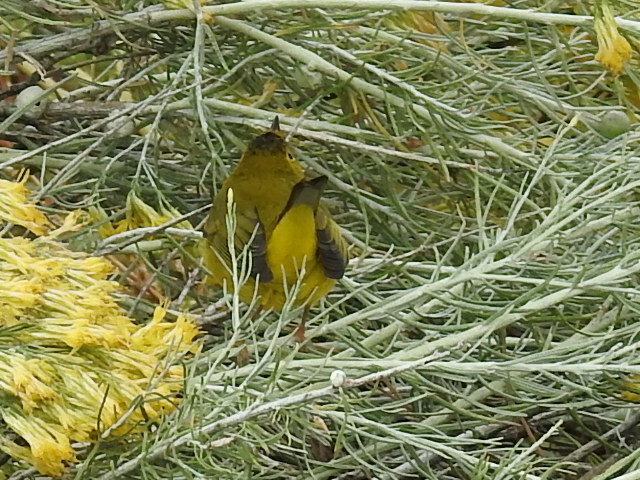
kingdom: Animalia
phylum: Chordata
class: Aves
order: Passeriformes
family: Parulidae
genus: Cardellina
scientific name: Cardellina pusilla
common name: Wilson's warbler
